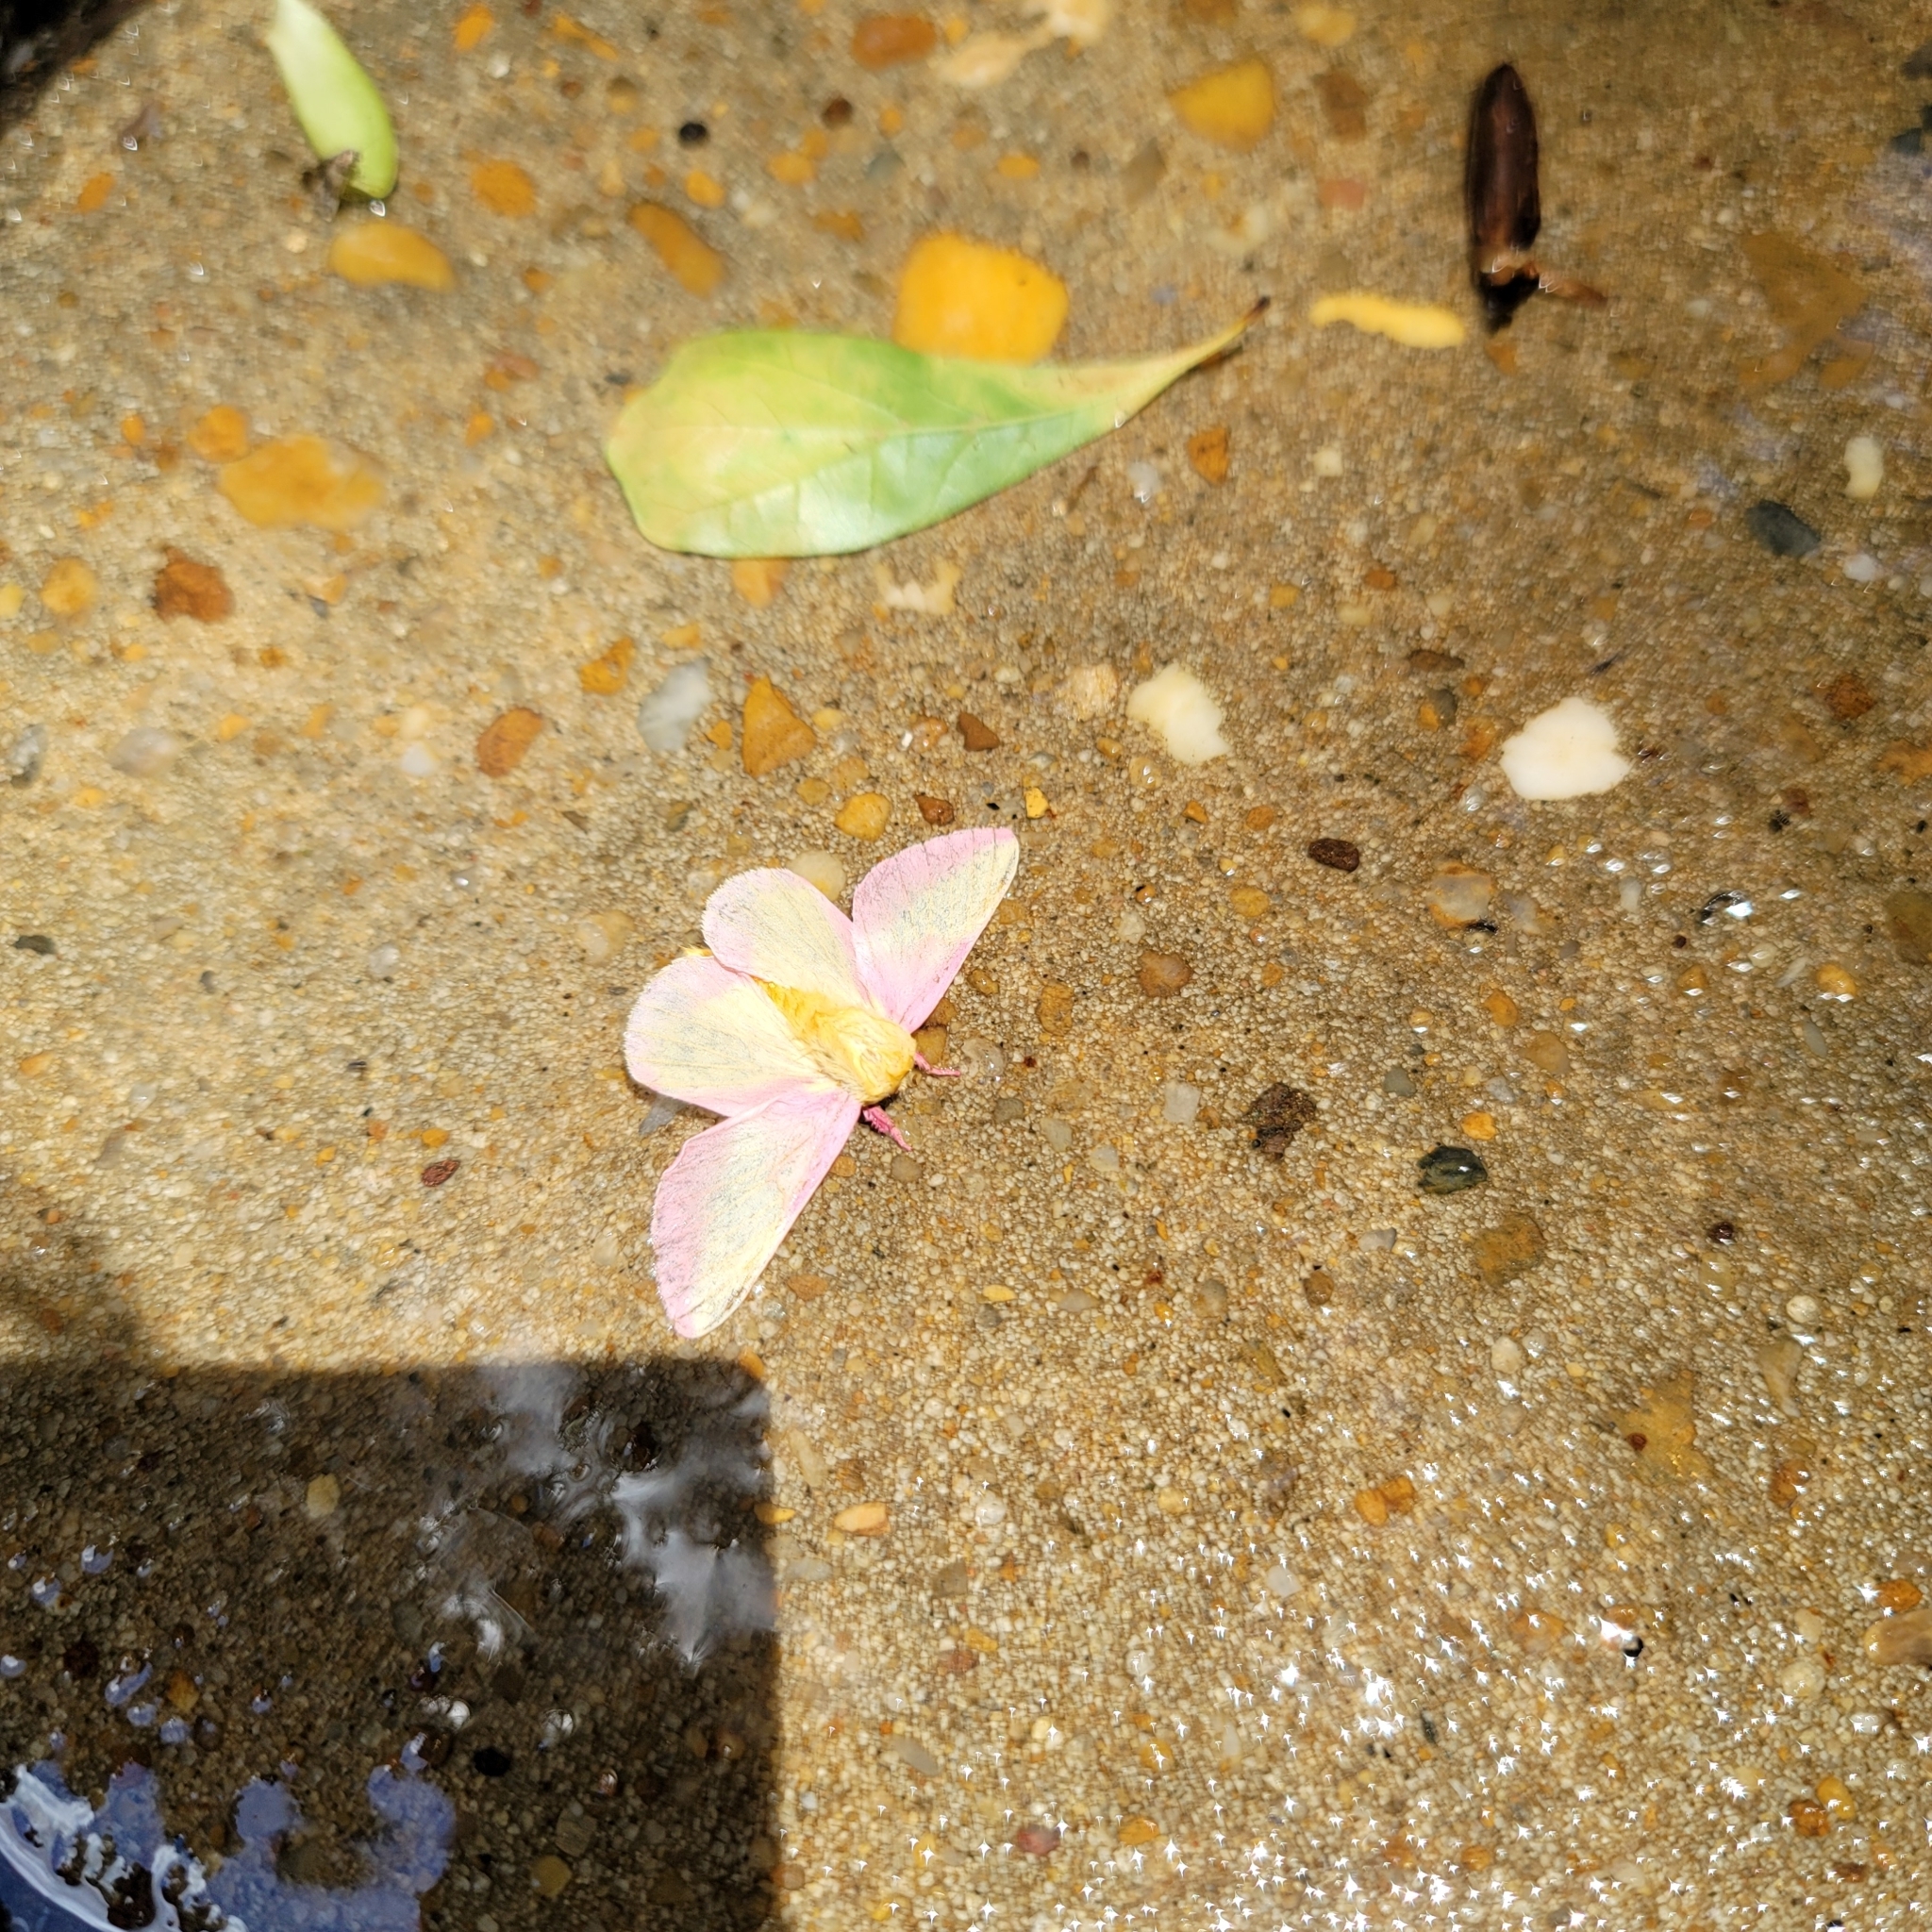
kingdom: Animalia
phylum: Arthropoda
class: Insecta
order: Lepidoptera
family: Saturniidae
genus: Dryocampa
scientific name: Dryocampa rubicunda
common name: Rosy maple moth
